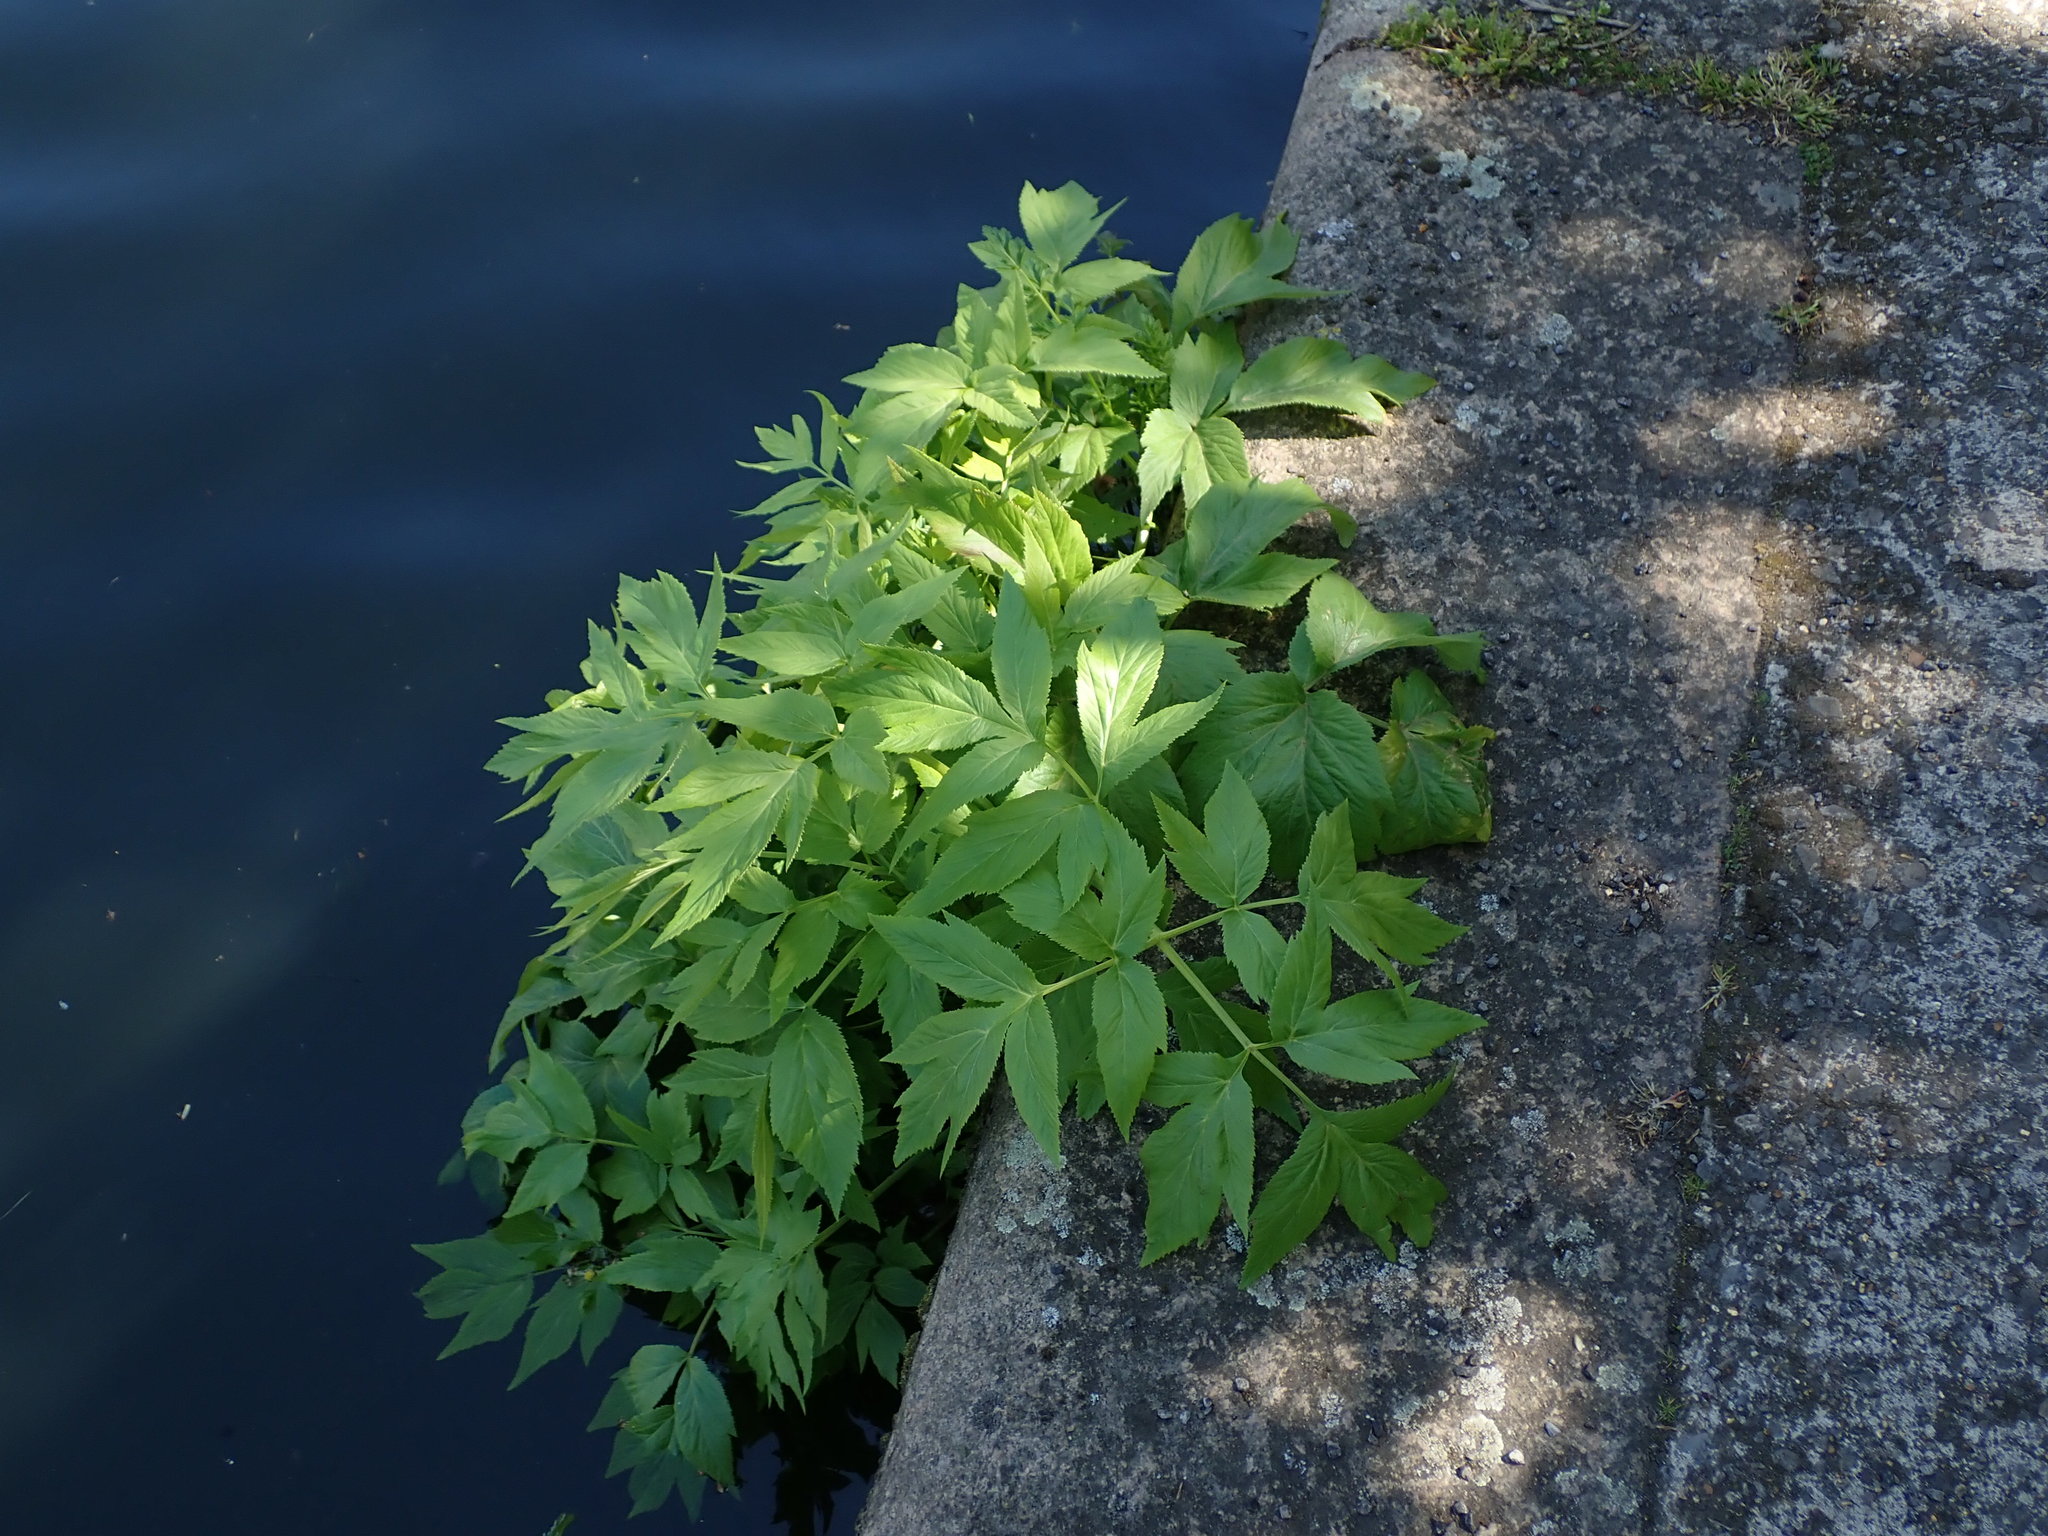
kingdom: Plantae
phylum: Tracheophyta
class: Magnoliopsida
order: Apiales
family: Apiaceae
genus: Angelica
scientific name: Angelica archangelica
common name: Garden angelica
